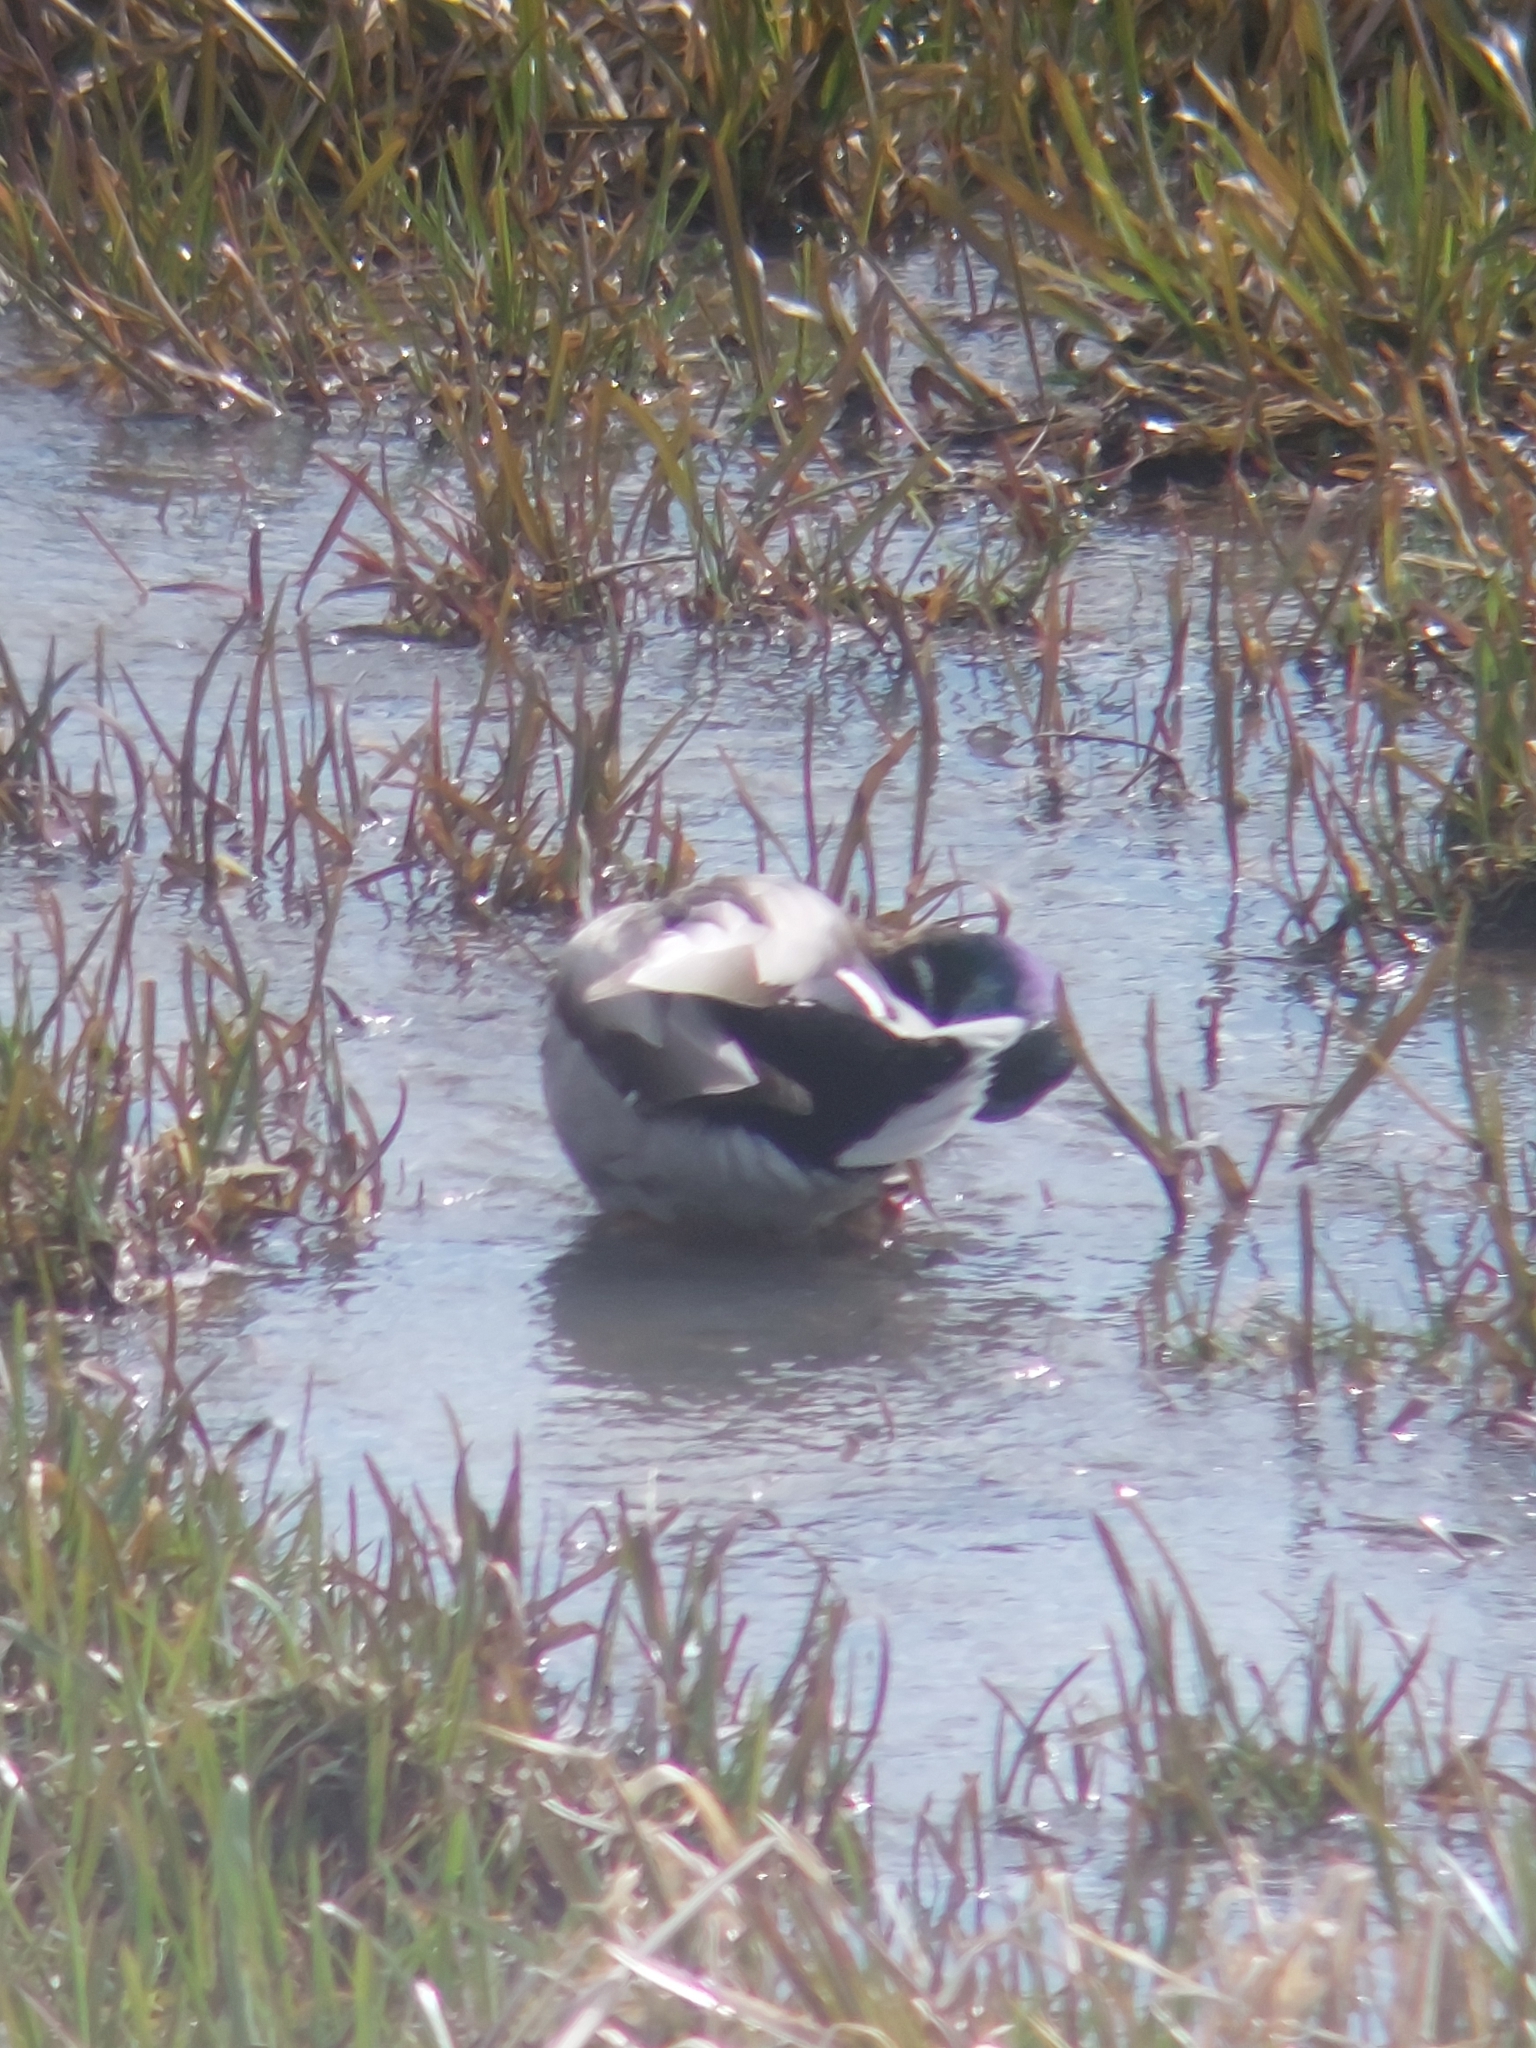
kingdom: Animalia
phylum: Chordata
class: Aves
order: Anseriformes
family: Anatidae
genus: Anas
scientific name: Anas platyrhynchos
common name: Mallard
